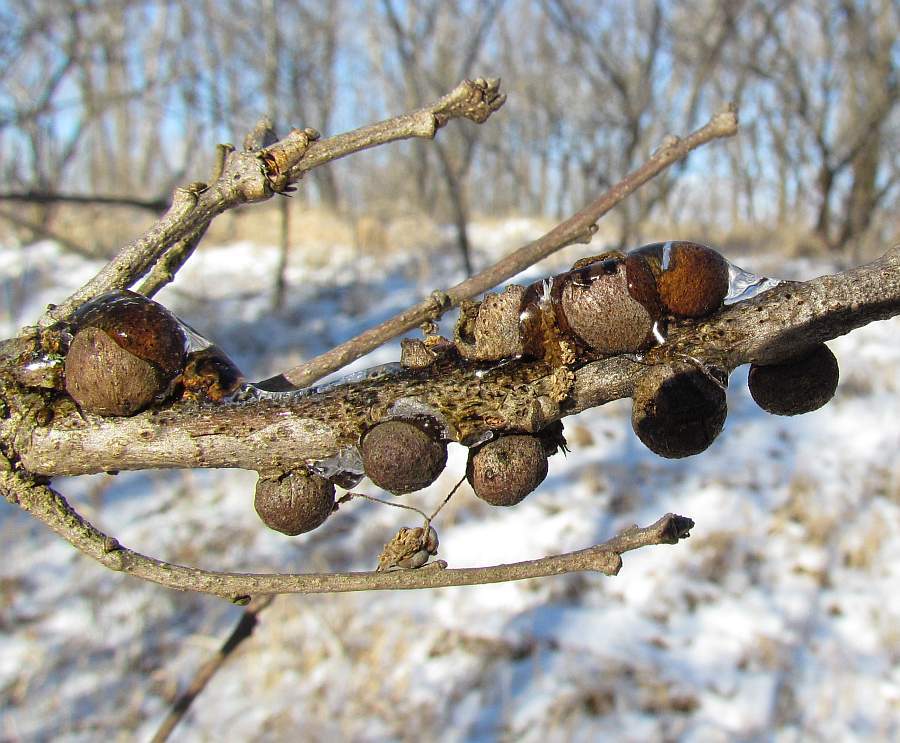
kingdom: Animalia
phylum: Arthropoda
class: Insecta
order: Hymenoptera
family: Cynipidae
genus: Disholcaspis
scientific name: Disholcaspis
